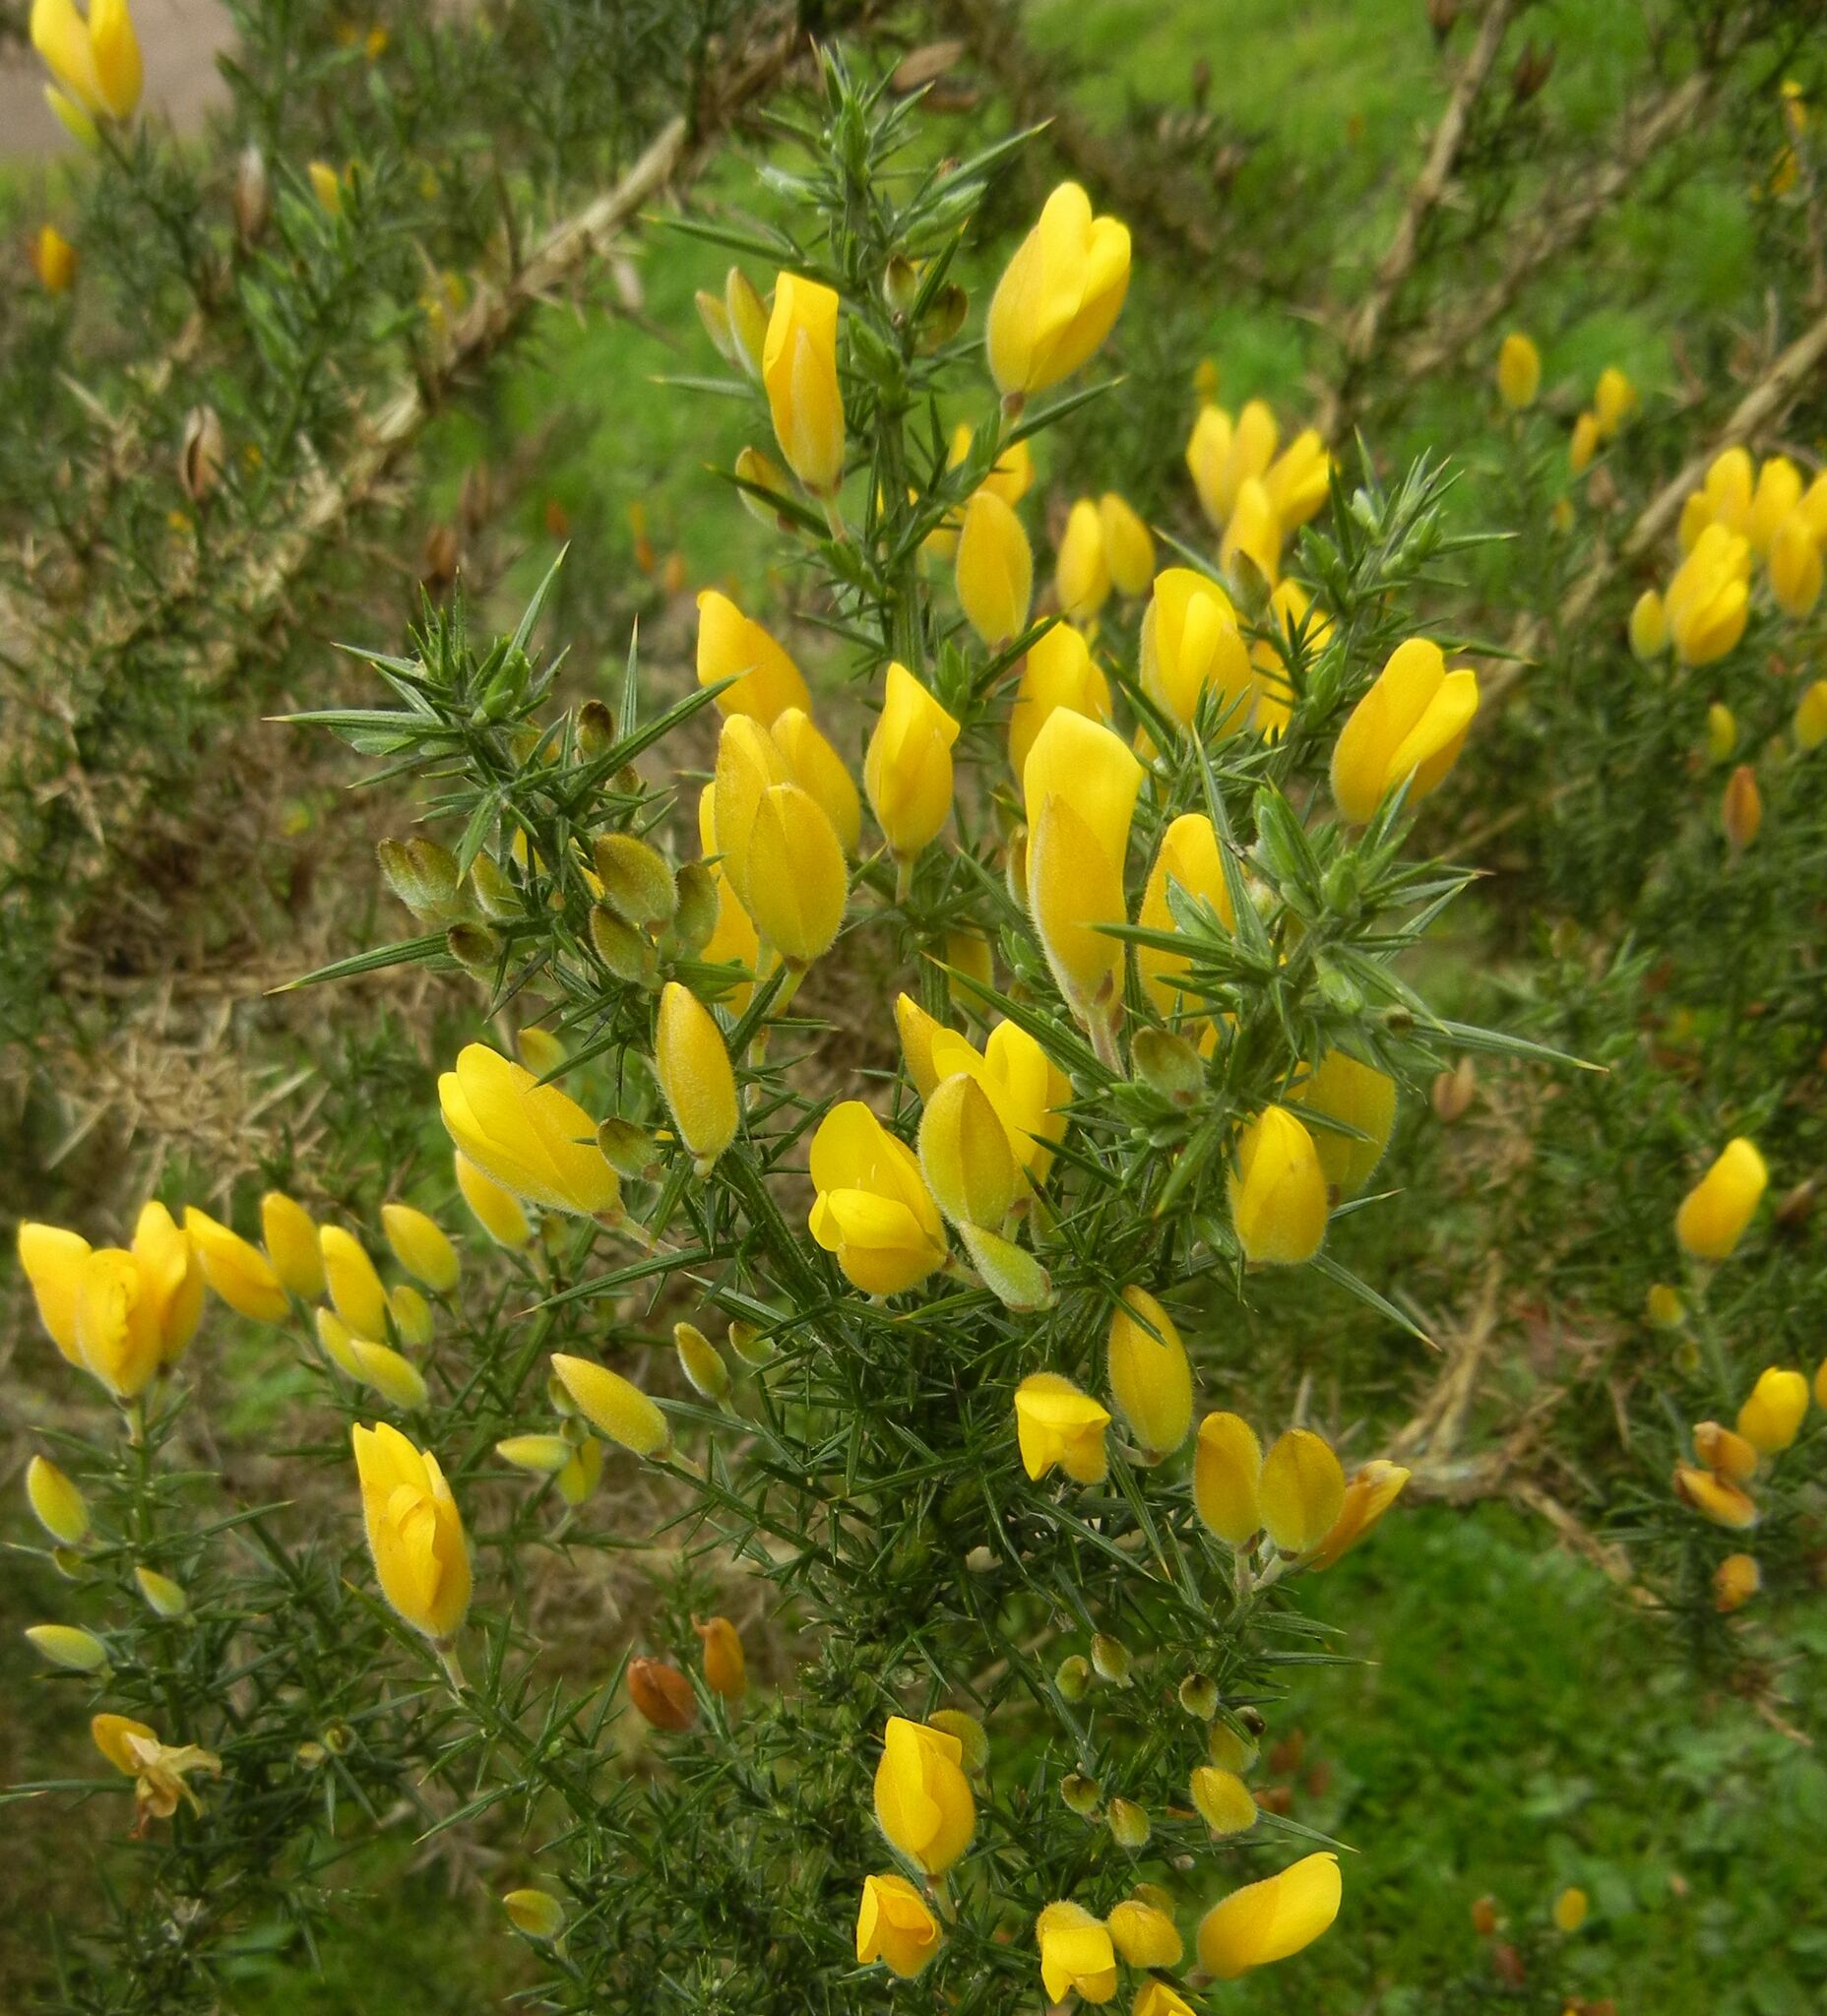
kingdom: Plantae
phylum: Tracheophyta
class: Magnoliopsida
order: Fabales
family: Fabaceae
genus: Ulex
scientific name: Ulex europaeus
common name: Common gorse
